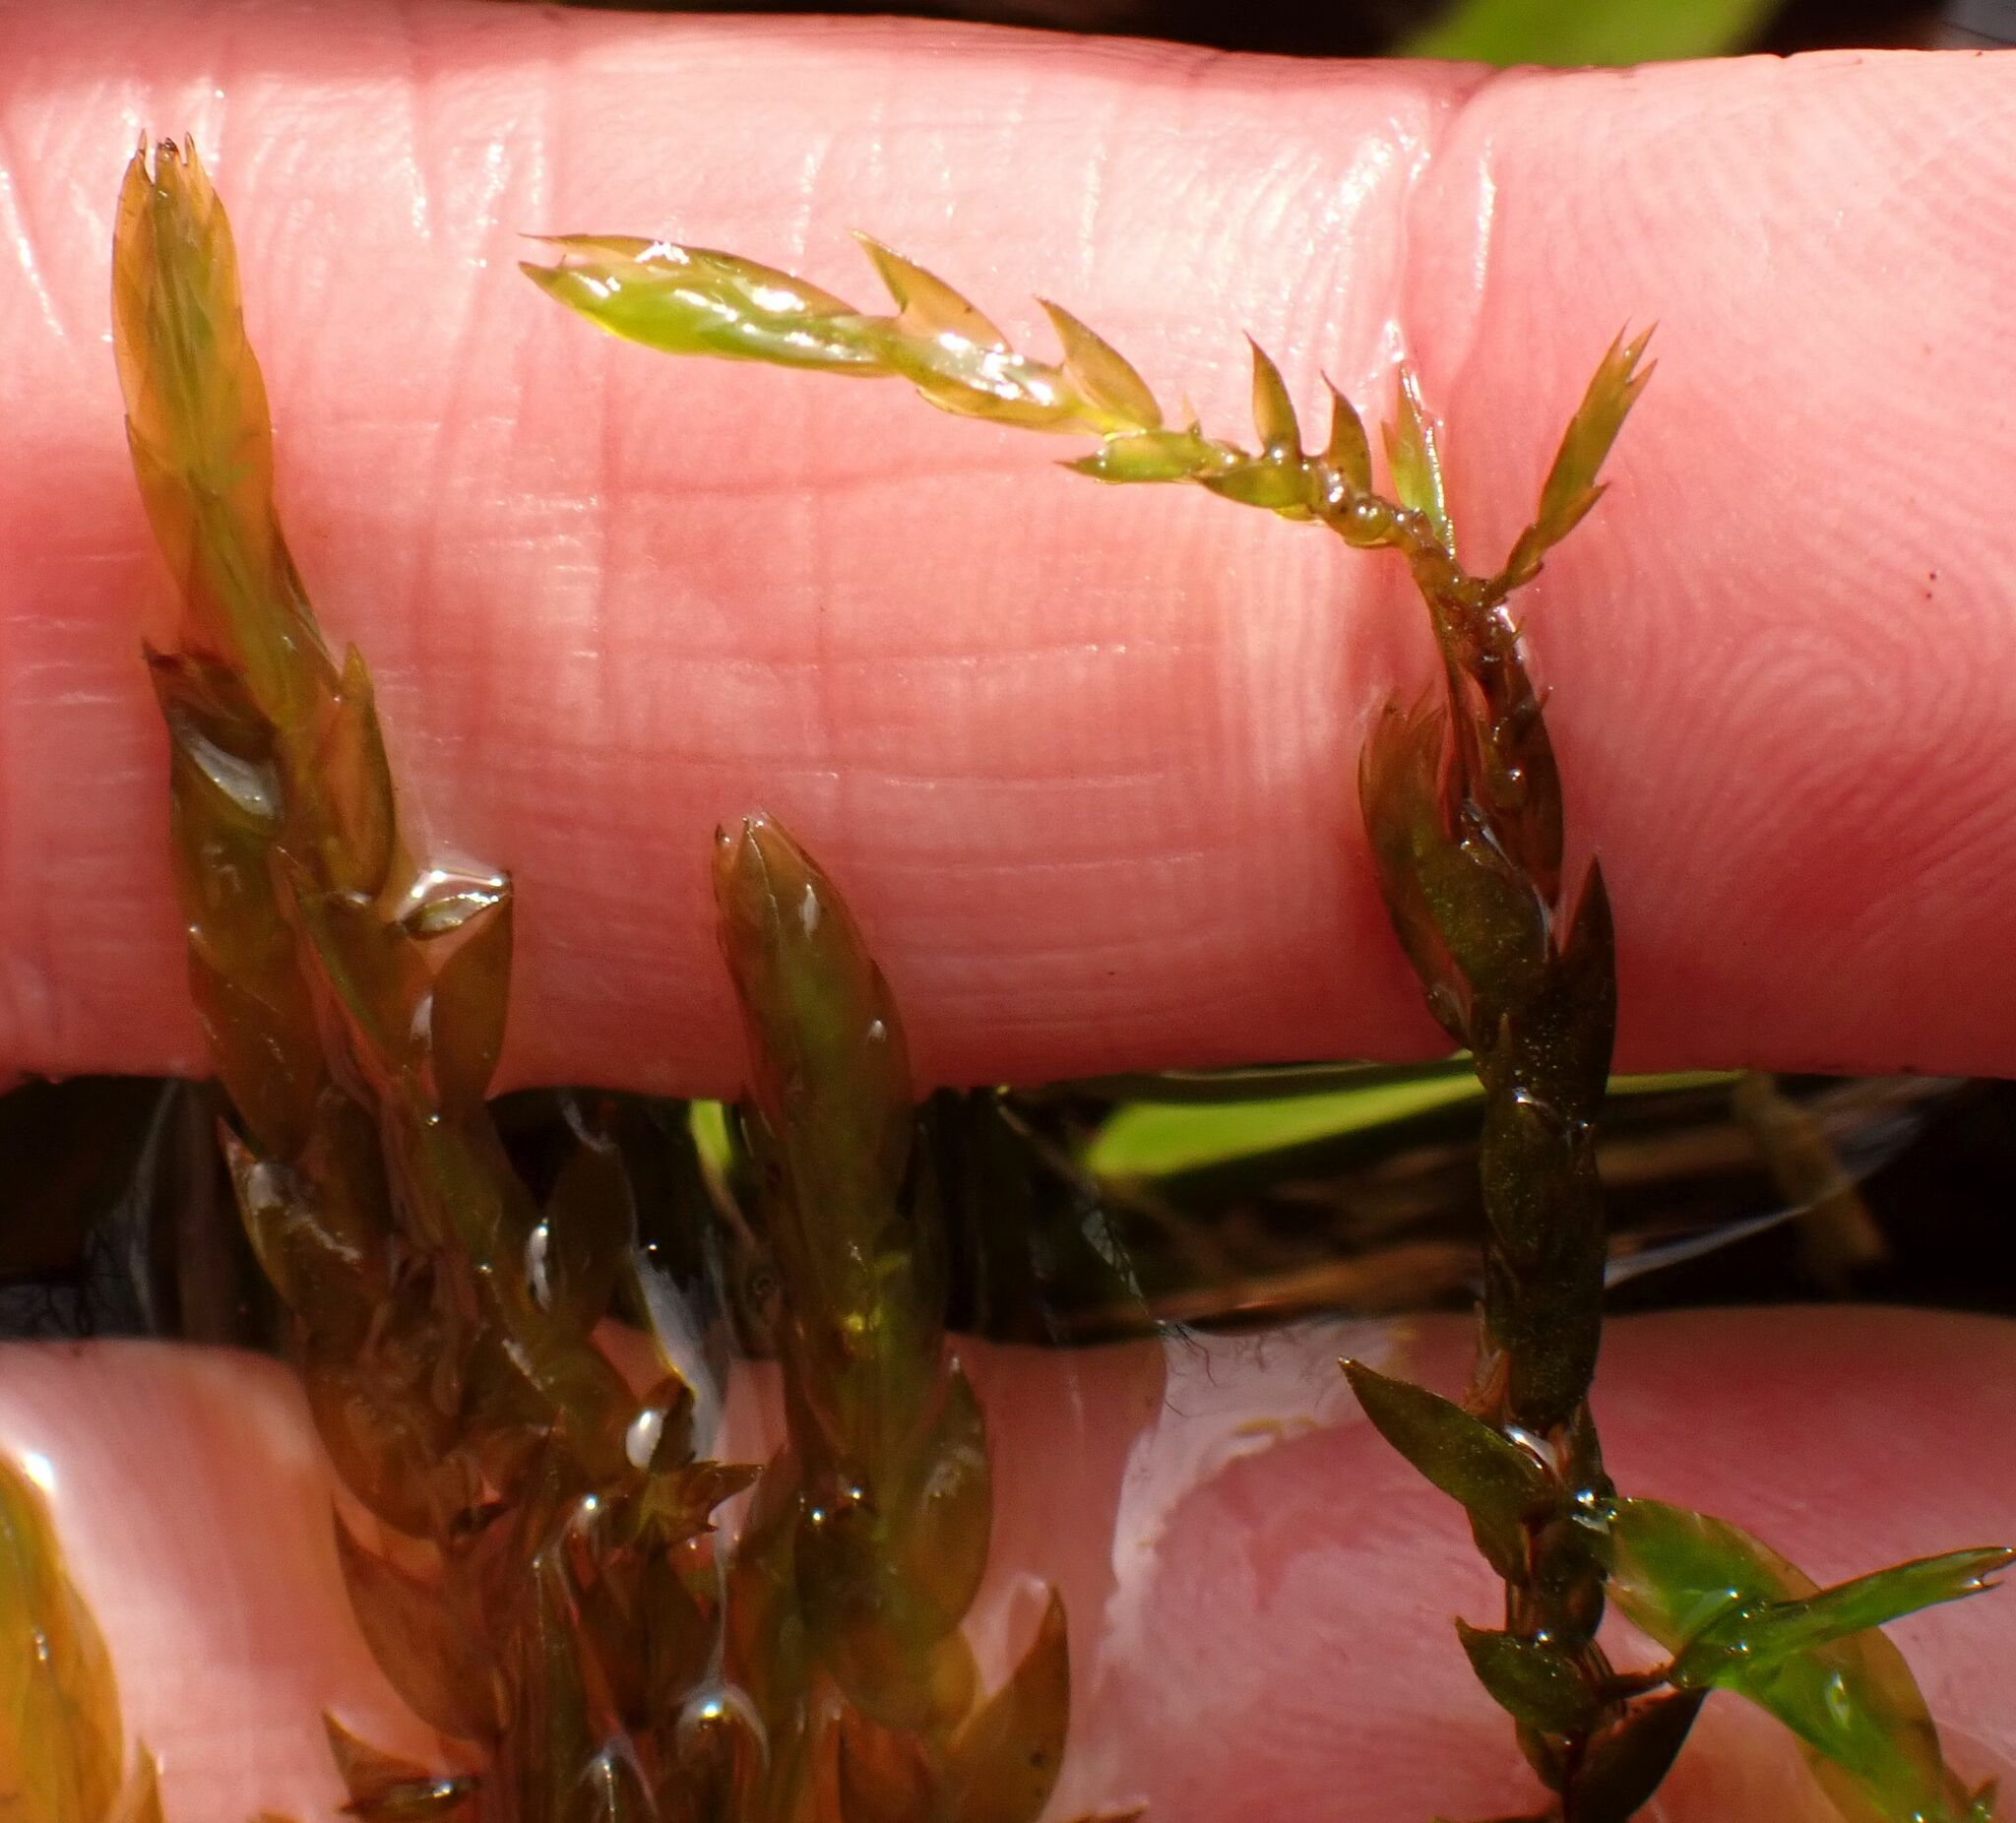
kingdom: Plantae
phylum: Bryophyta
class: Bryopsida
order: Hypnales
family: Fontinalaceae
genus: Fontinalis
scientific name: Fontinalis antipyretica
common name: Greater water-moss
